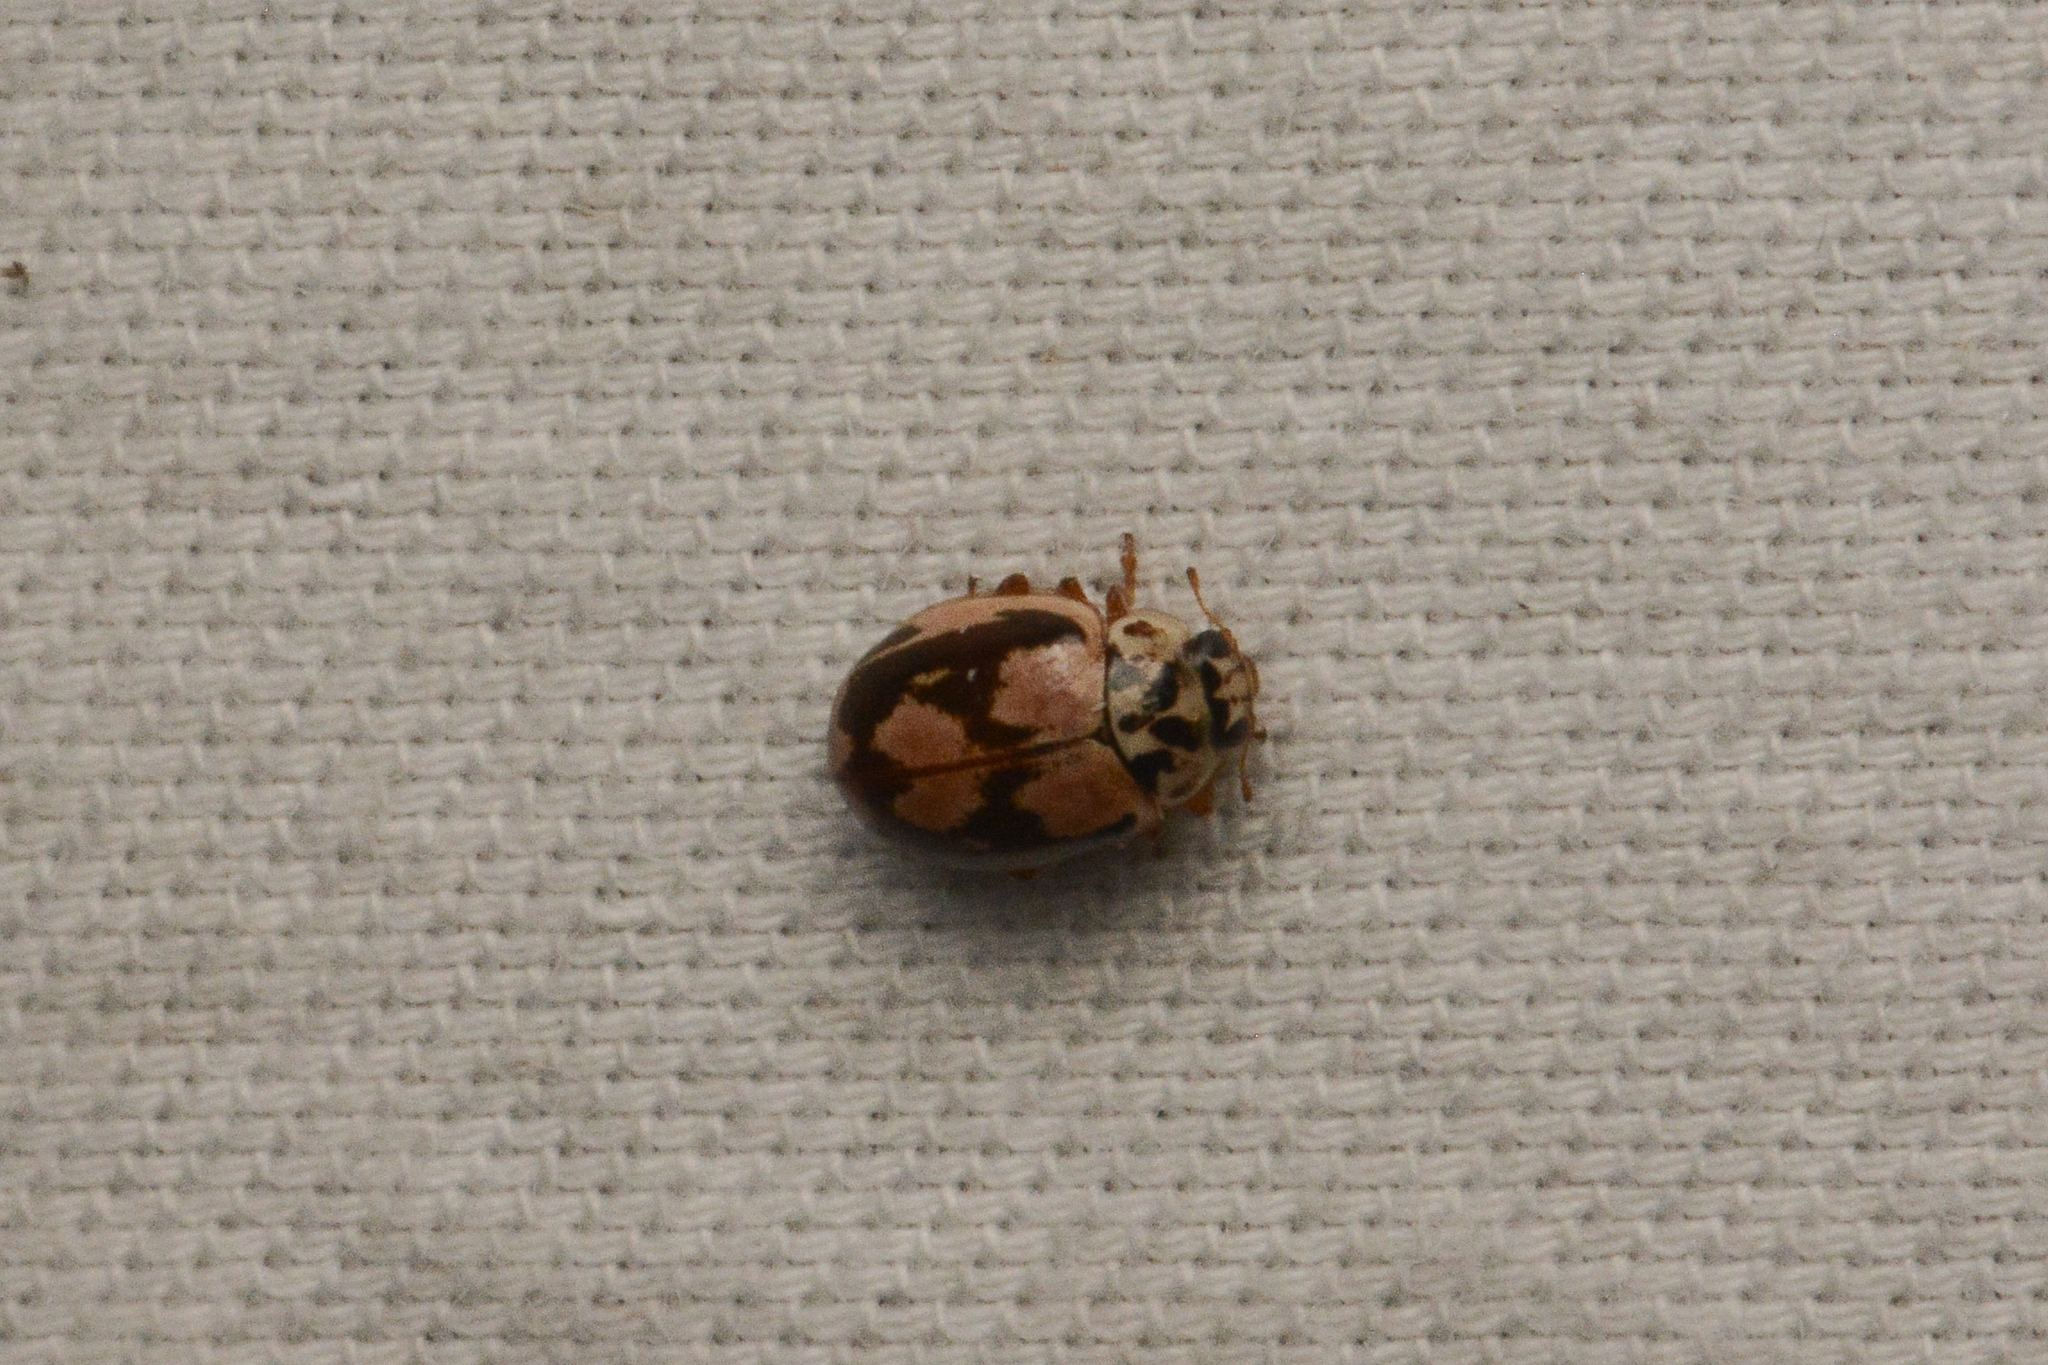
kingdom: Animalia
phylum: Arthropoda
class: Insecta
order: Coleoptera
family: Coccinellidae
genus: Mulsantina
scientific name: Mulsantina picta
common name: Painted ladybird
